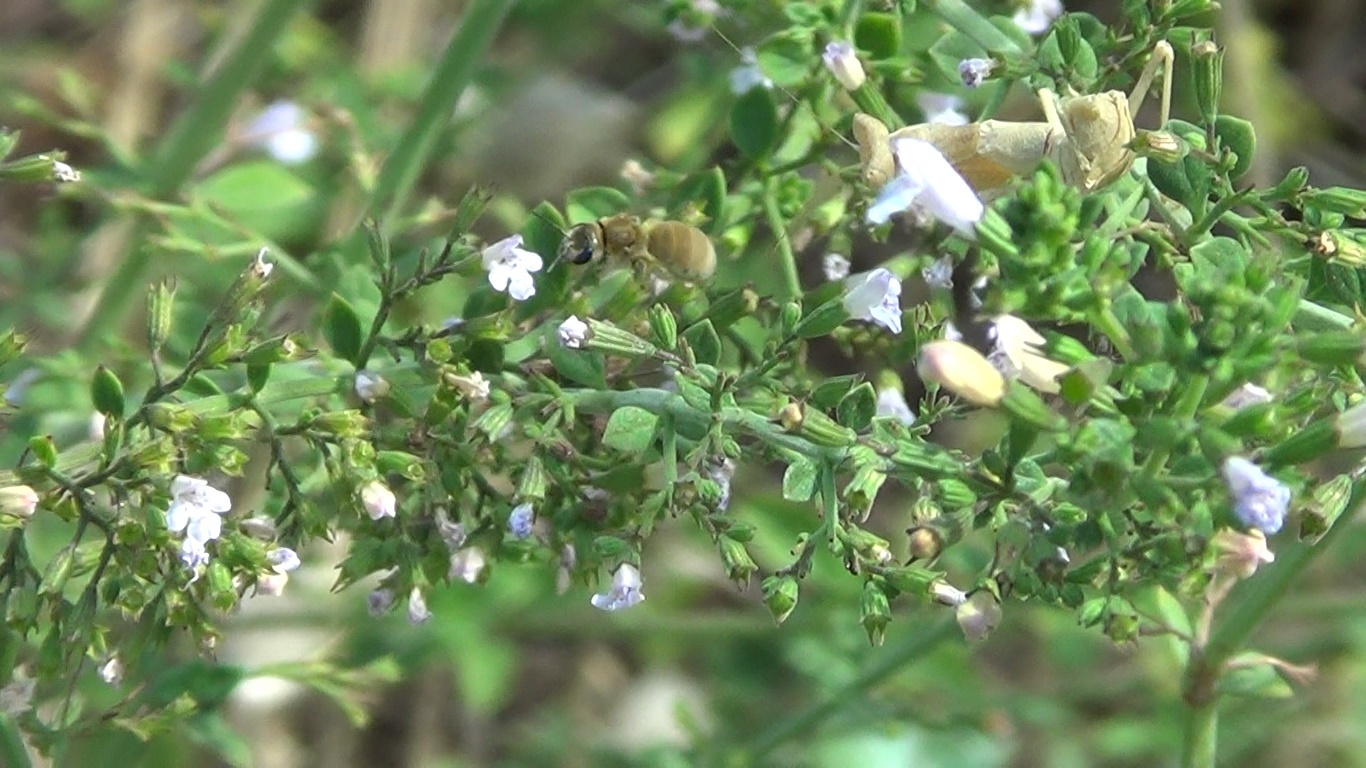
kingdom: Animalia
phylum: Arthropoda
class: Insecta
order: Mantodea
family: Amelidae
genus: Ameles
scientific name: Ameles spallanzania
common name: European dwarf mantis
